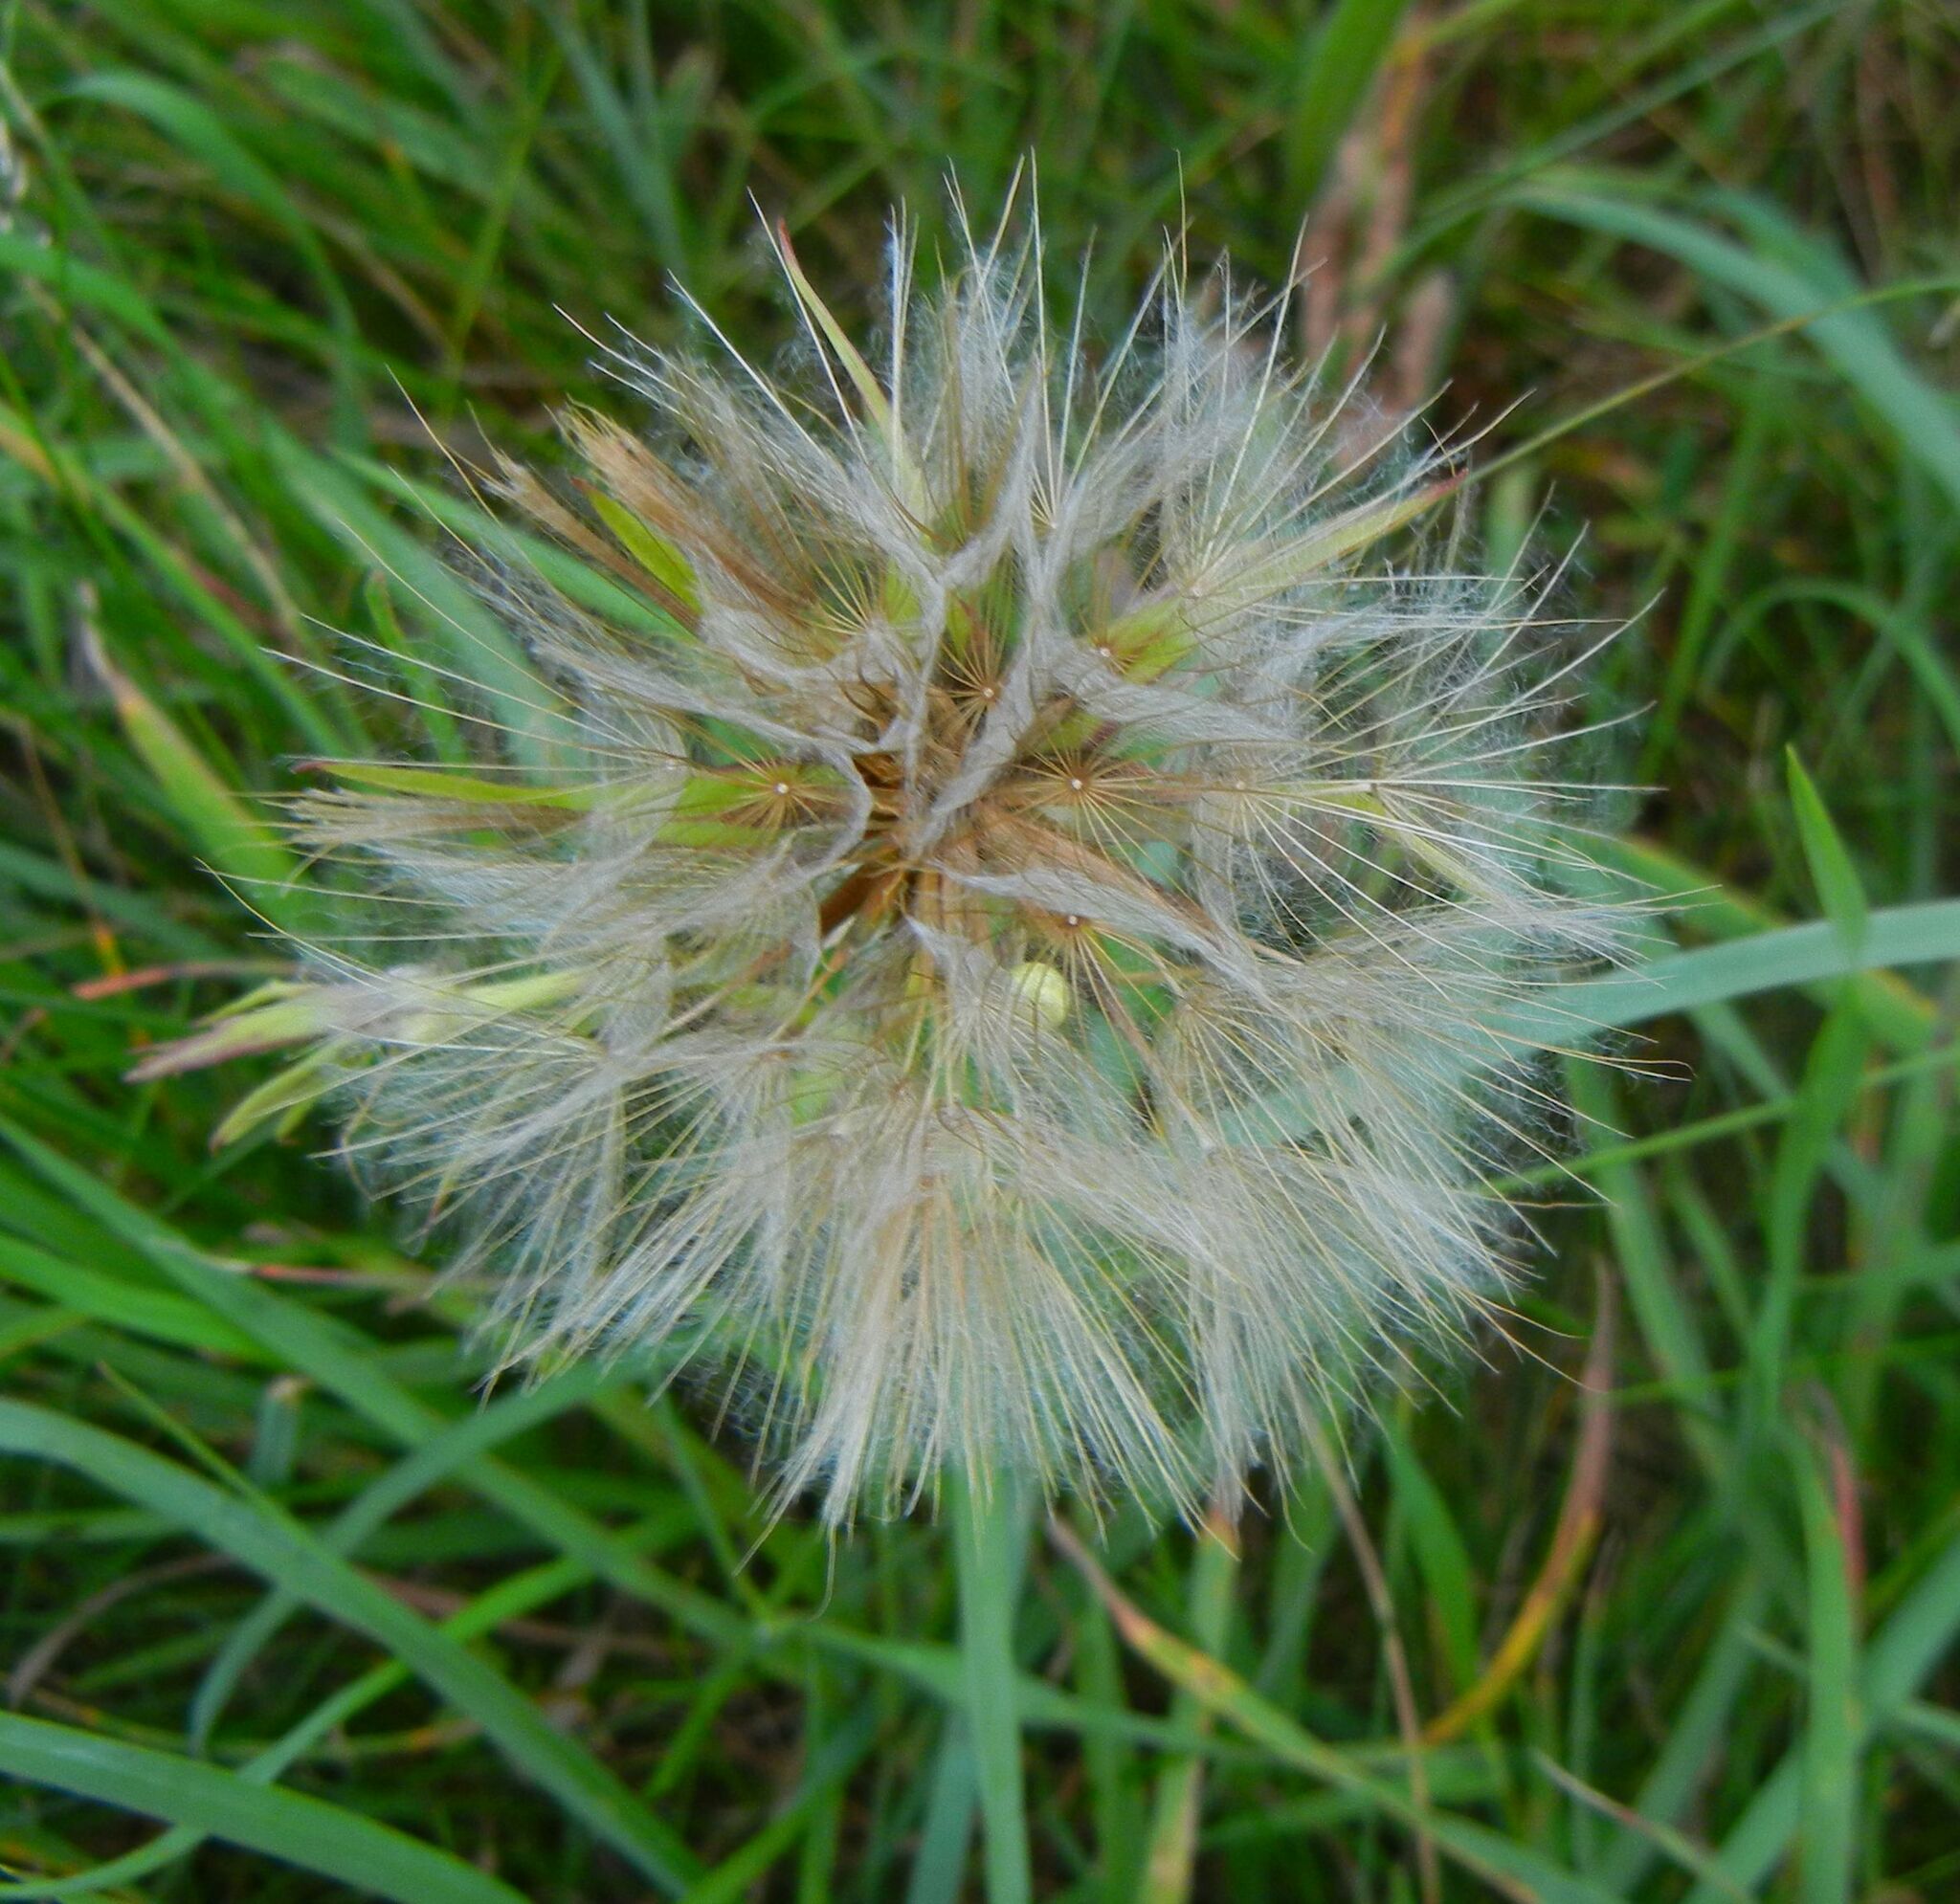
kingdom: Plantae
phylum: Tracheophyta
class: Magnoliopsida
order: Asterales
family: Asteraceae
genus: Tragopogon
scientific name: Tragopogon pratensis
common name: Goat's-beard
